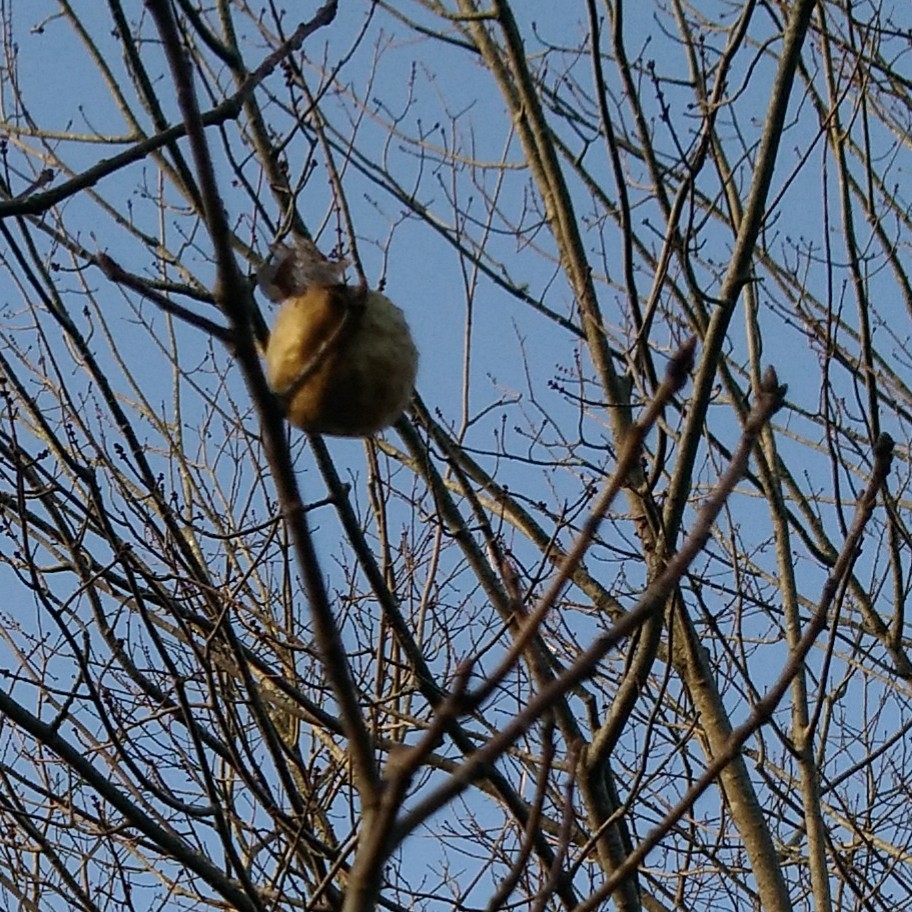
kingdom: Plantae
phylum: Tracheophyta
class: Magnoliopsida
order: Fagales
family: Fagaceae
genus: Quercus
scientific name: Quercus rubra
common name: Red oak
